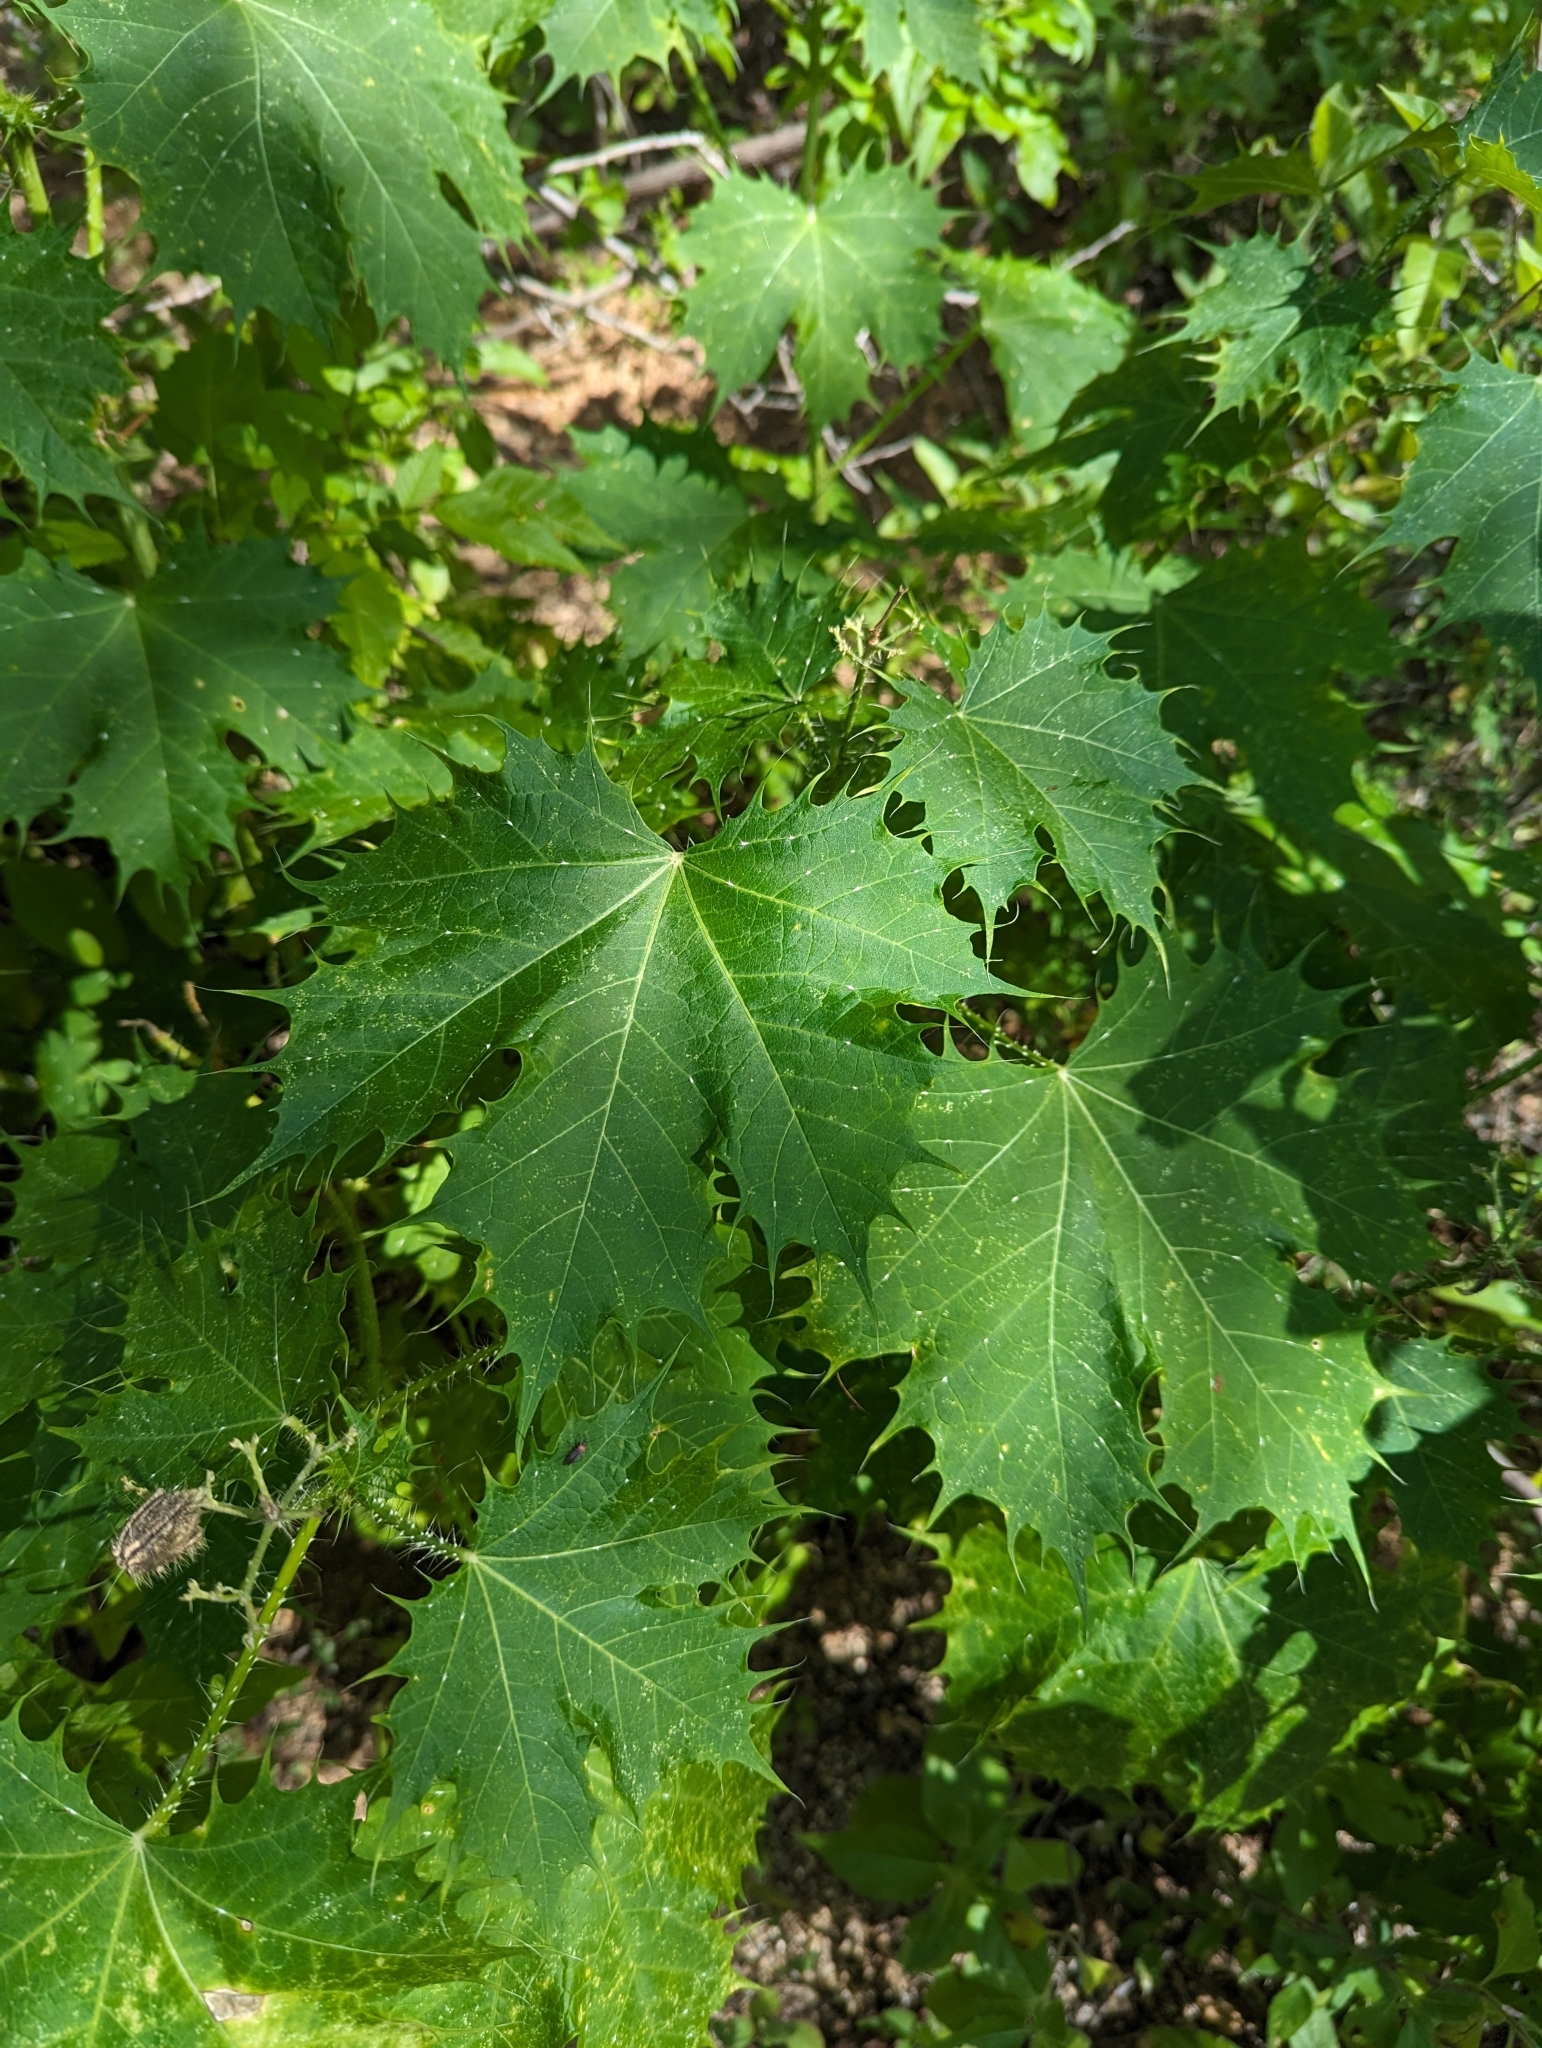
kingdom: Plantae
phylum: Tracheophyta
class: Magnoliopsida
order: Malpighiales
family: Euphorbiaceae
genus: Cnidoscolus
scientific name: Cnidoscolus maculatus
